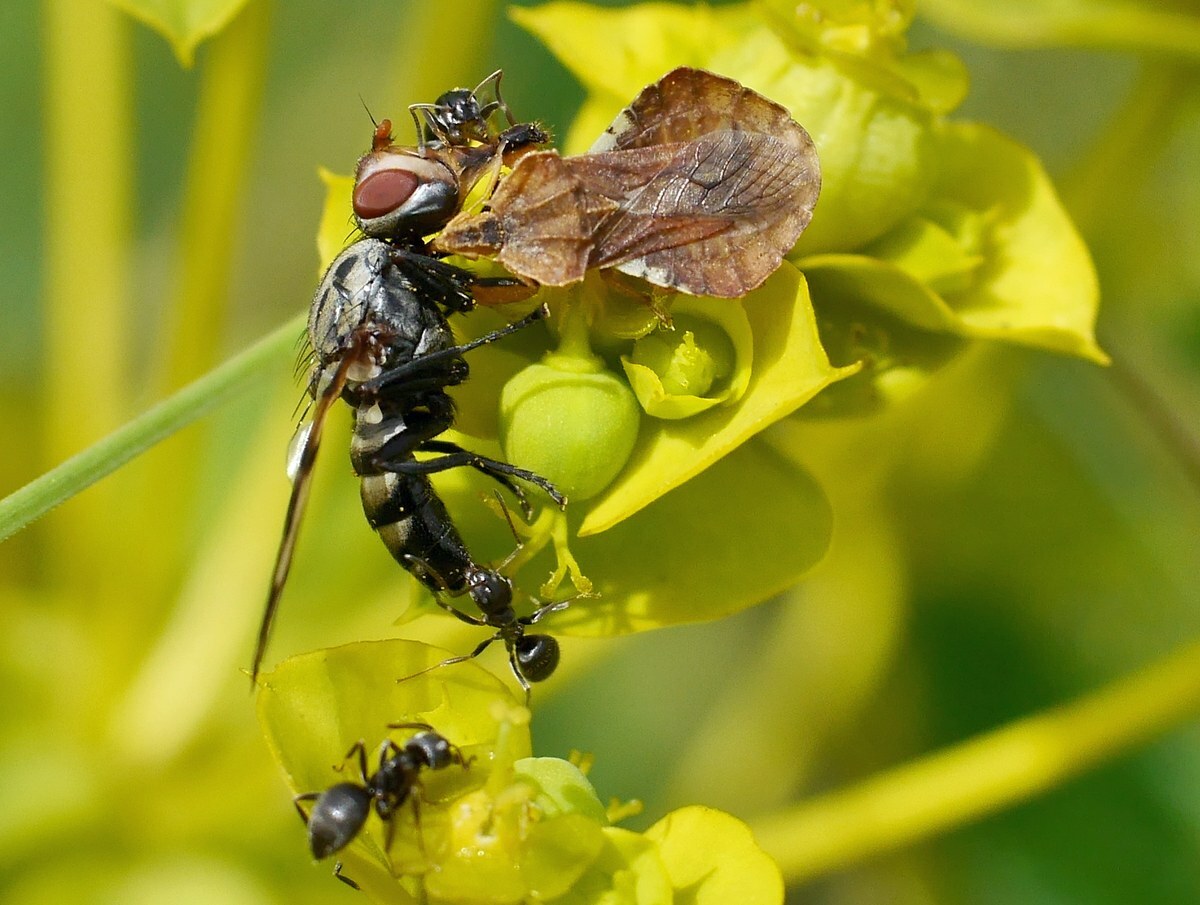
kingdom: Animalia
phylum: Arthropoda
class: Insecta
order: Hemiptera
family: Reduviidae
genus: Phymata
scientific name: Phymata crassipes
